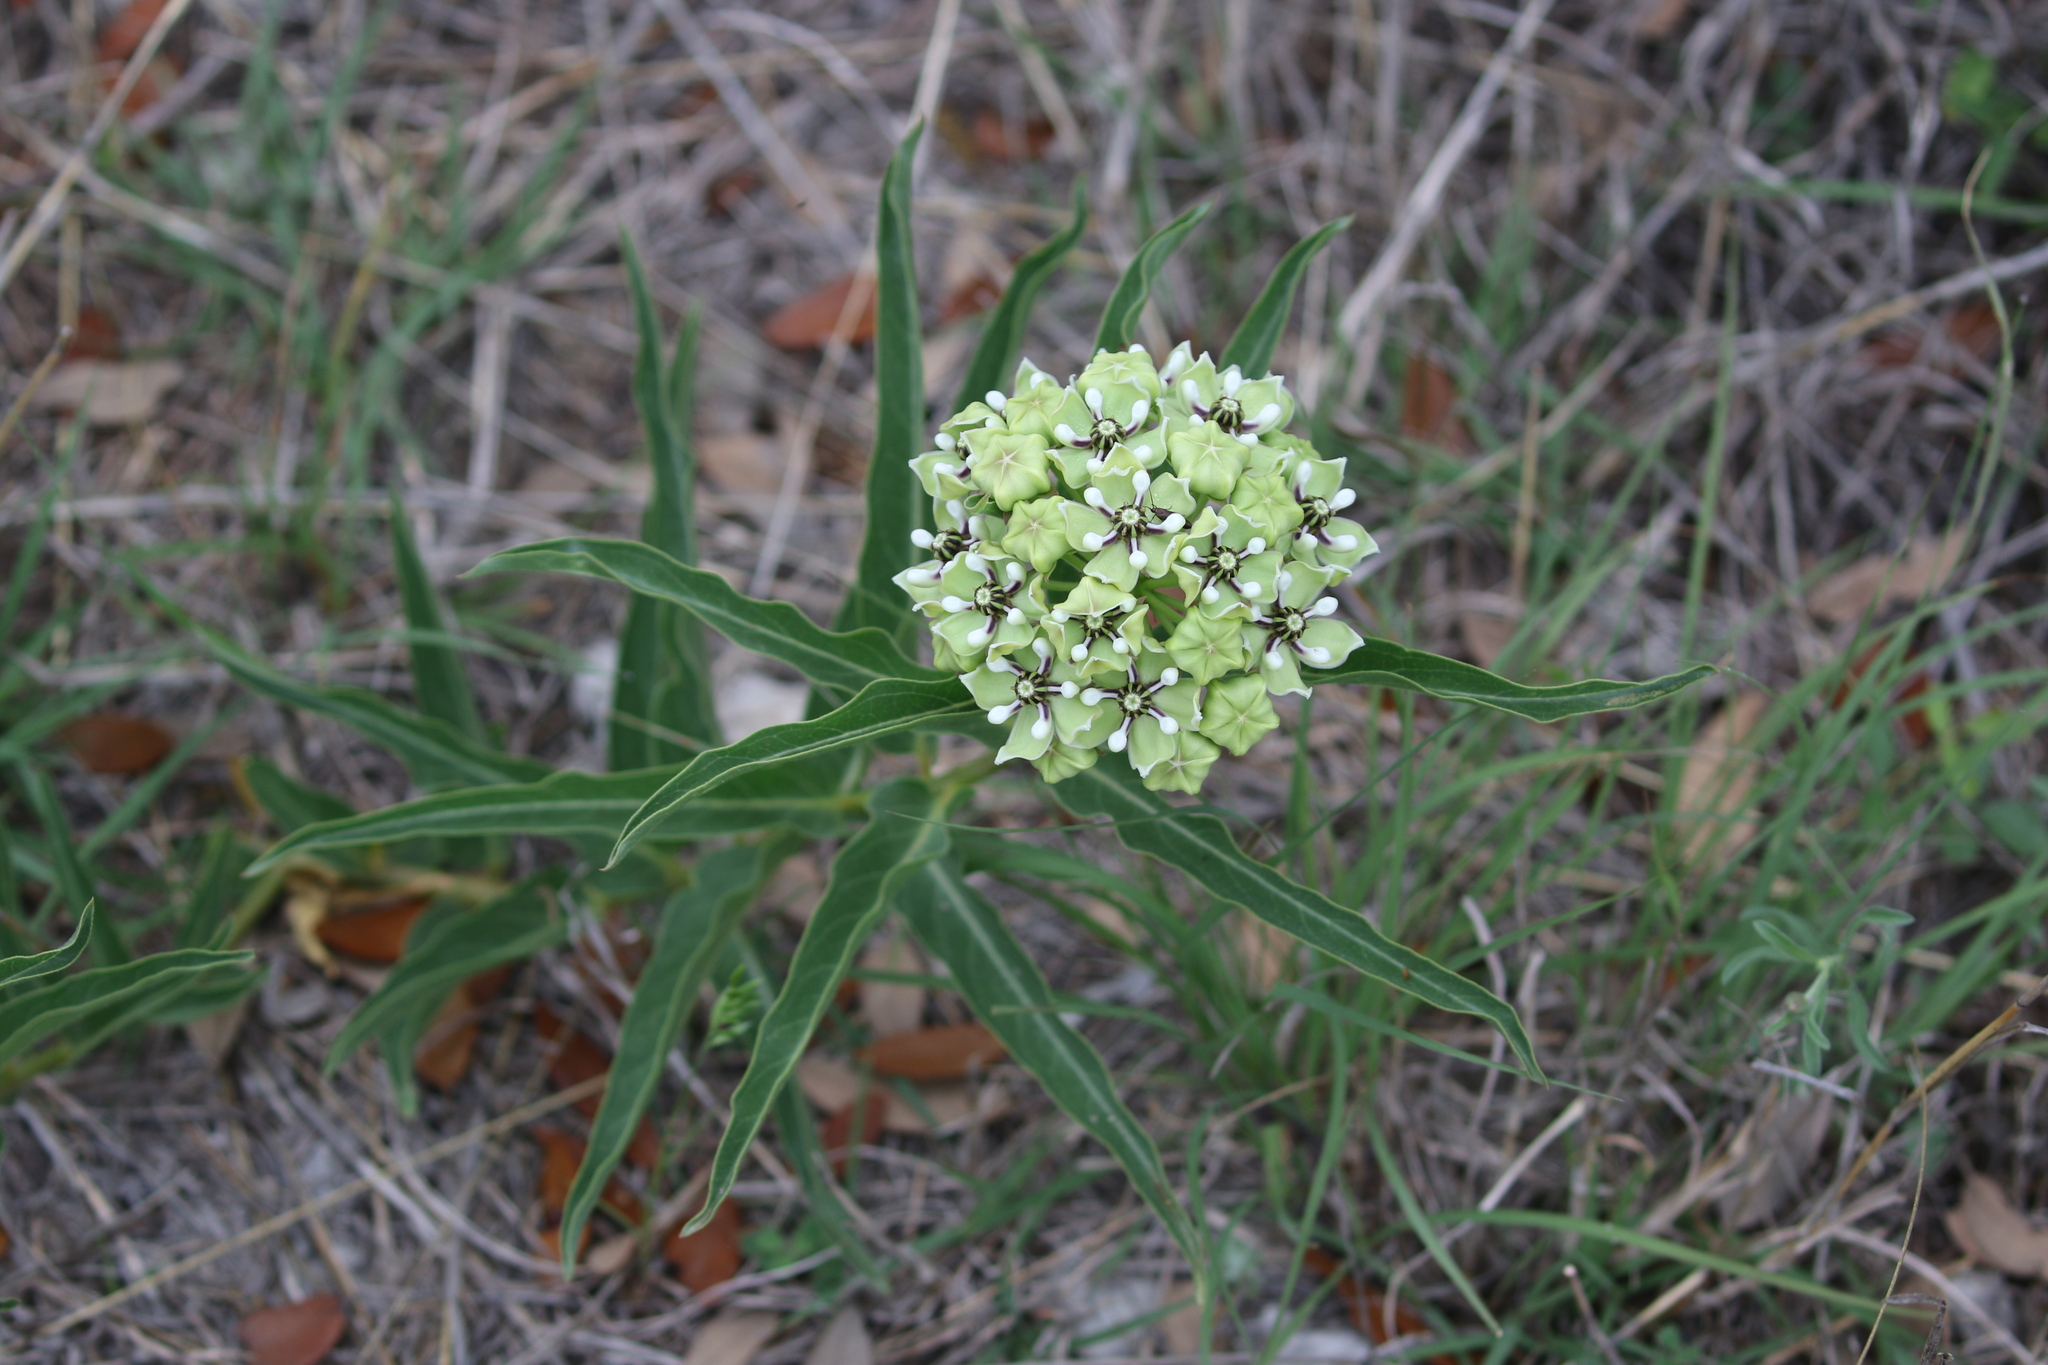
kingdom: Plantae
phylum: Tracheophyta
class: Magnoliopsida
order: Gentianales
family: Apocynaceae
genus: Asclepias
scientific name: Asclepias asperula
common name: Antelope horns
